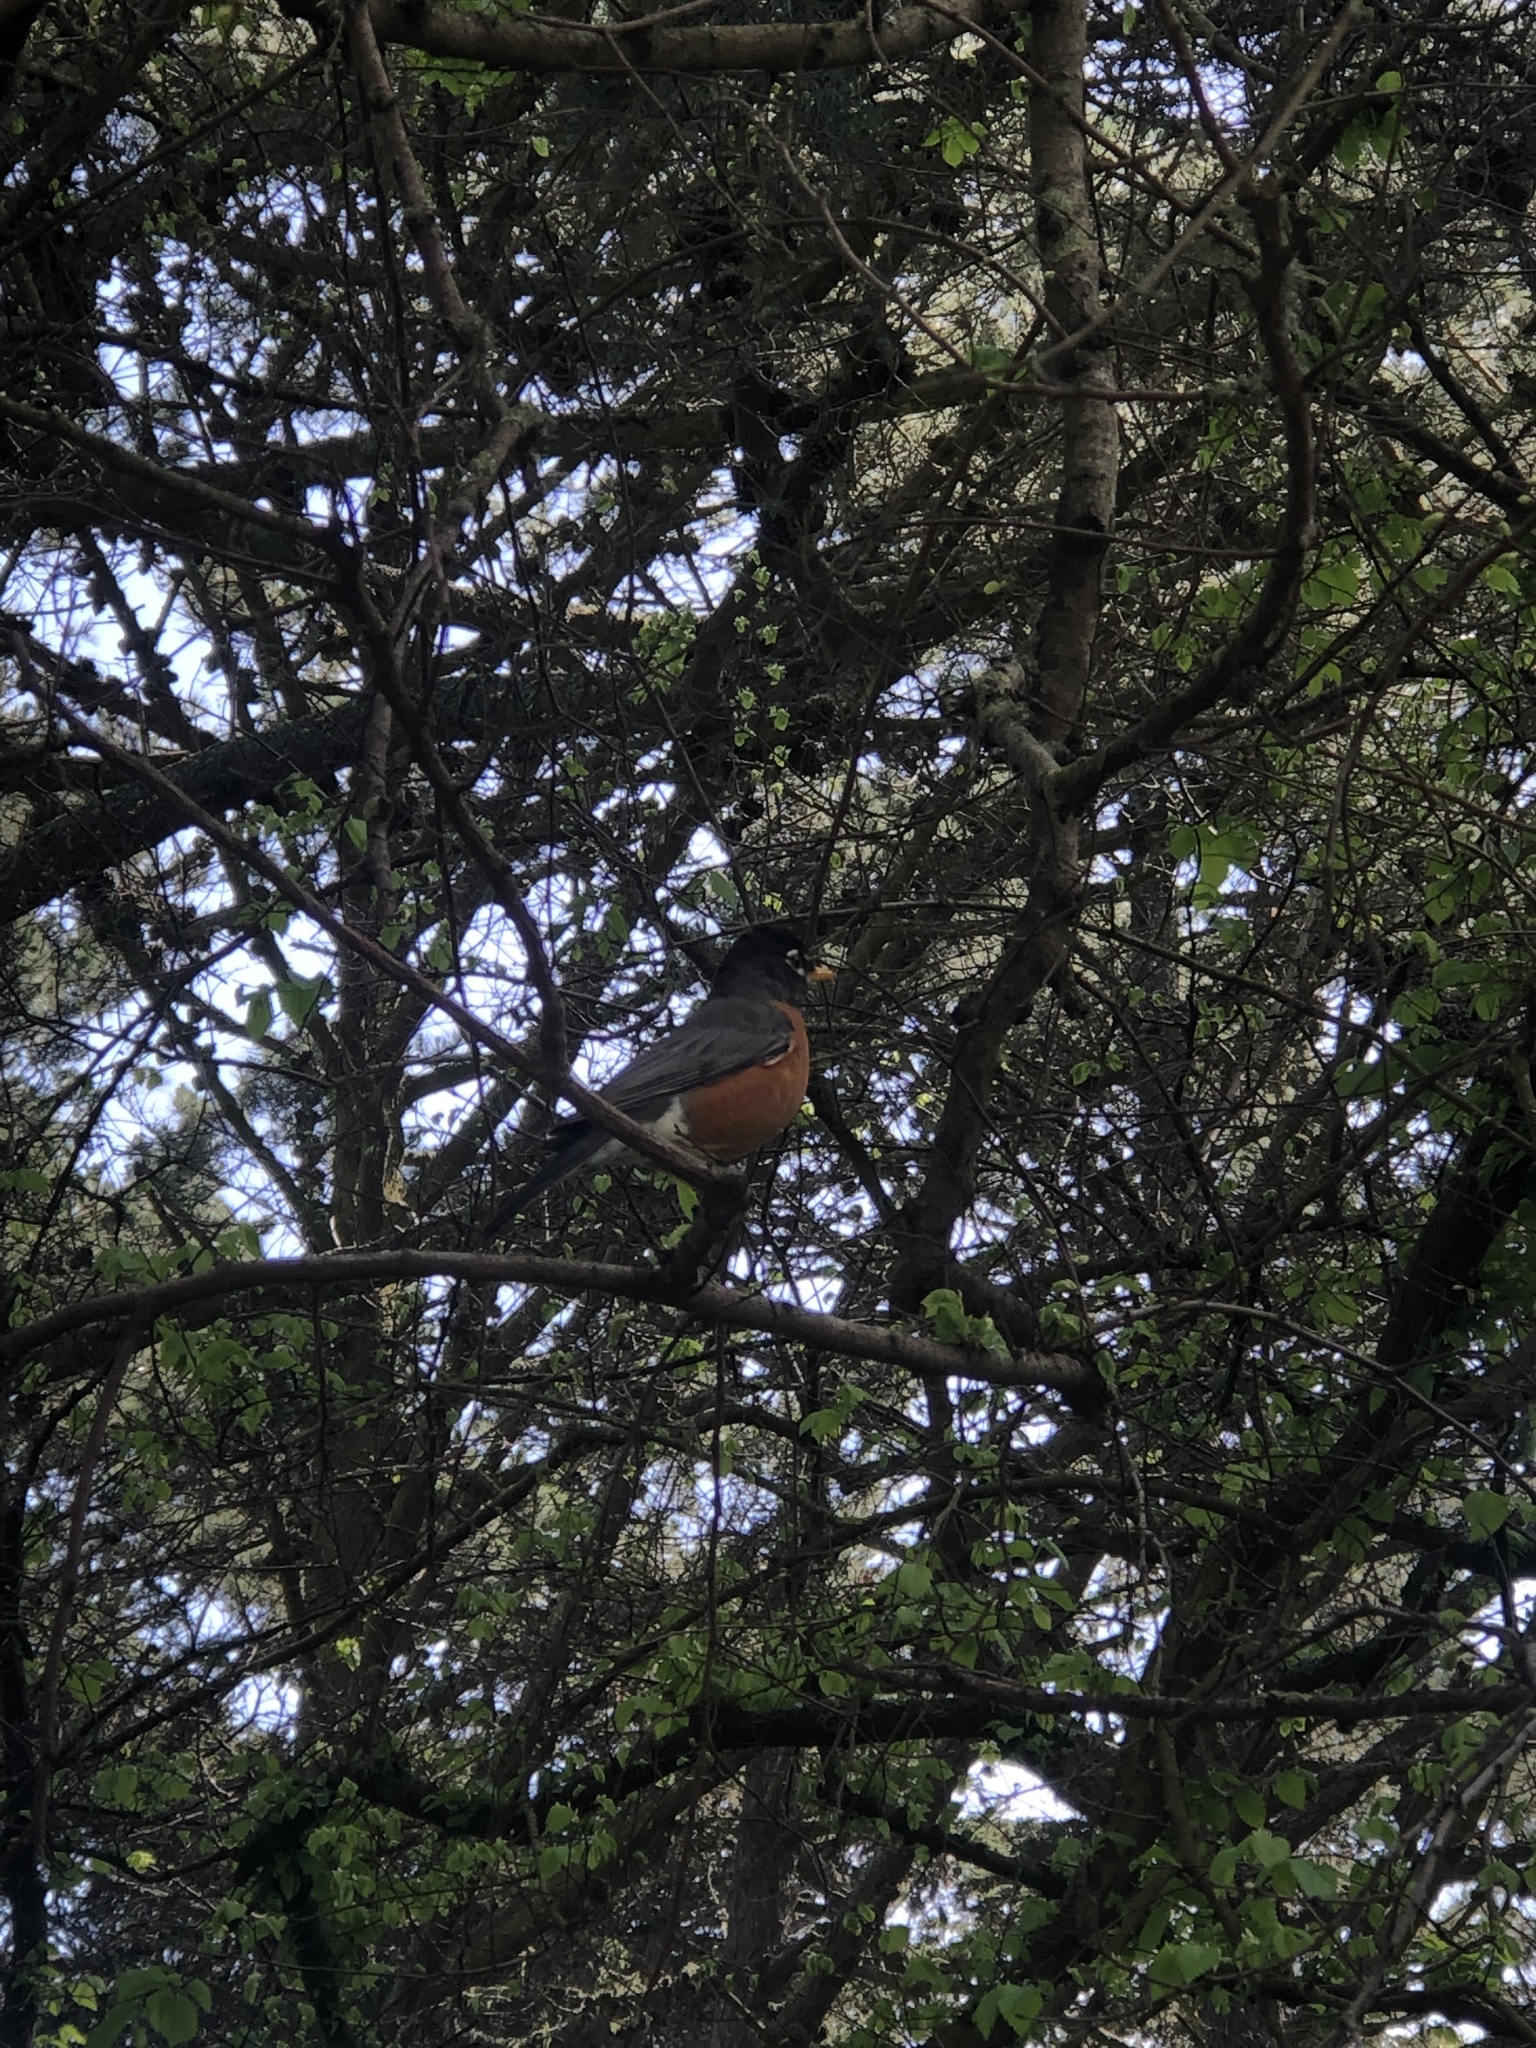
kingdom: Animalia
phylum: Chordata
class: Aves
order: Passeriformes
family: Turdidae
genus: Turdus
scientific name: Turdus migratorius
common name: American robin
